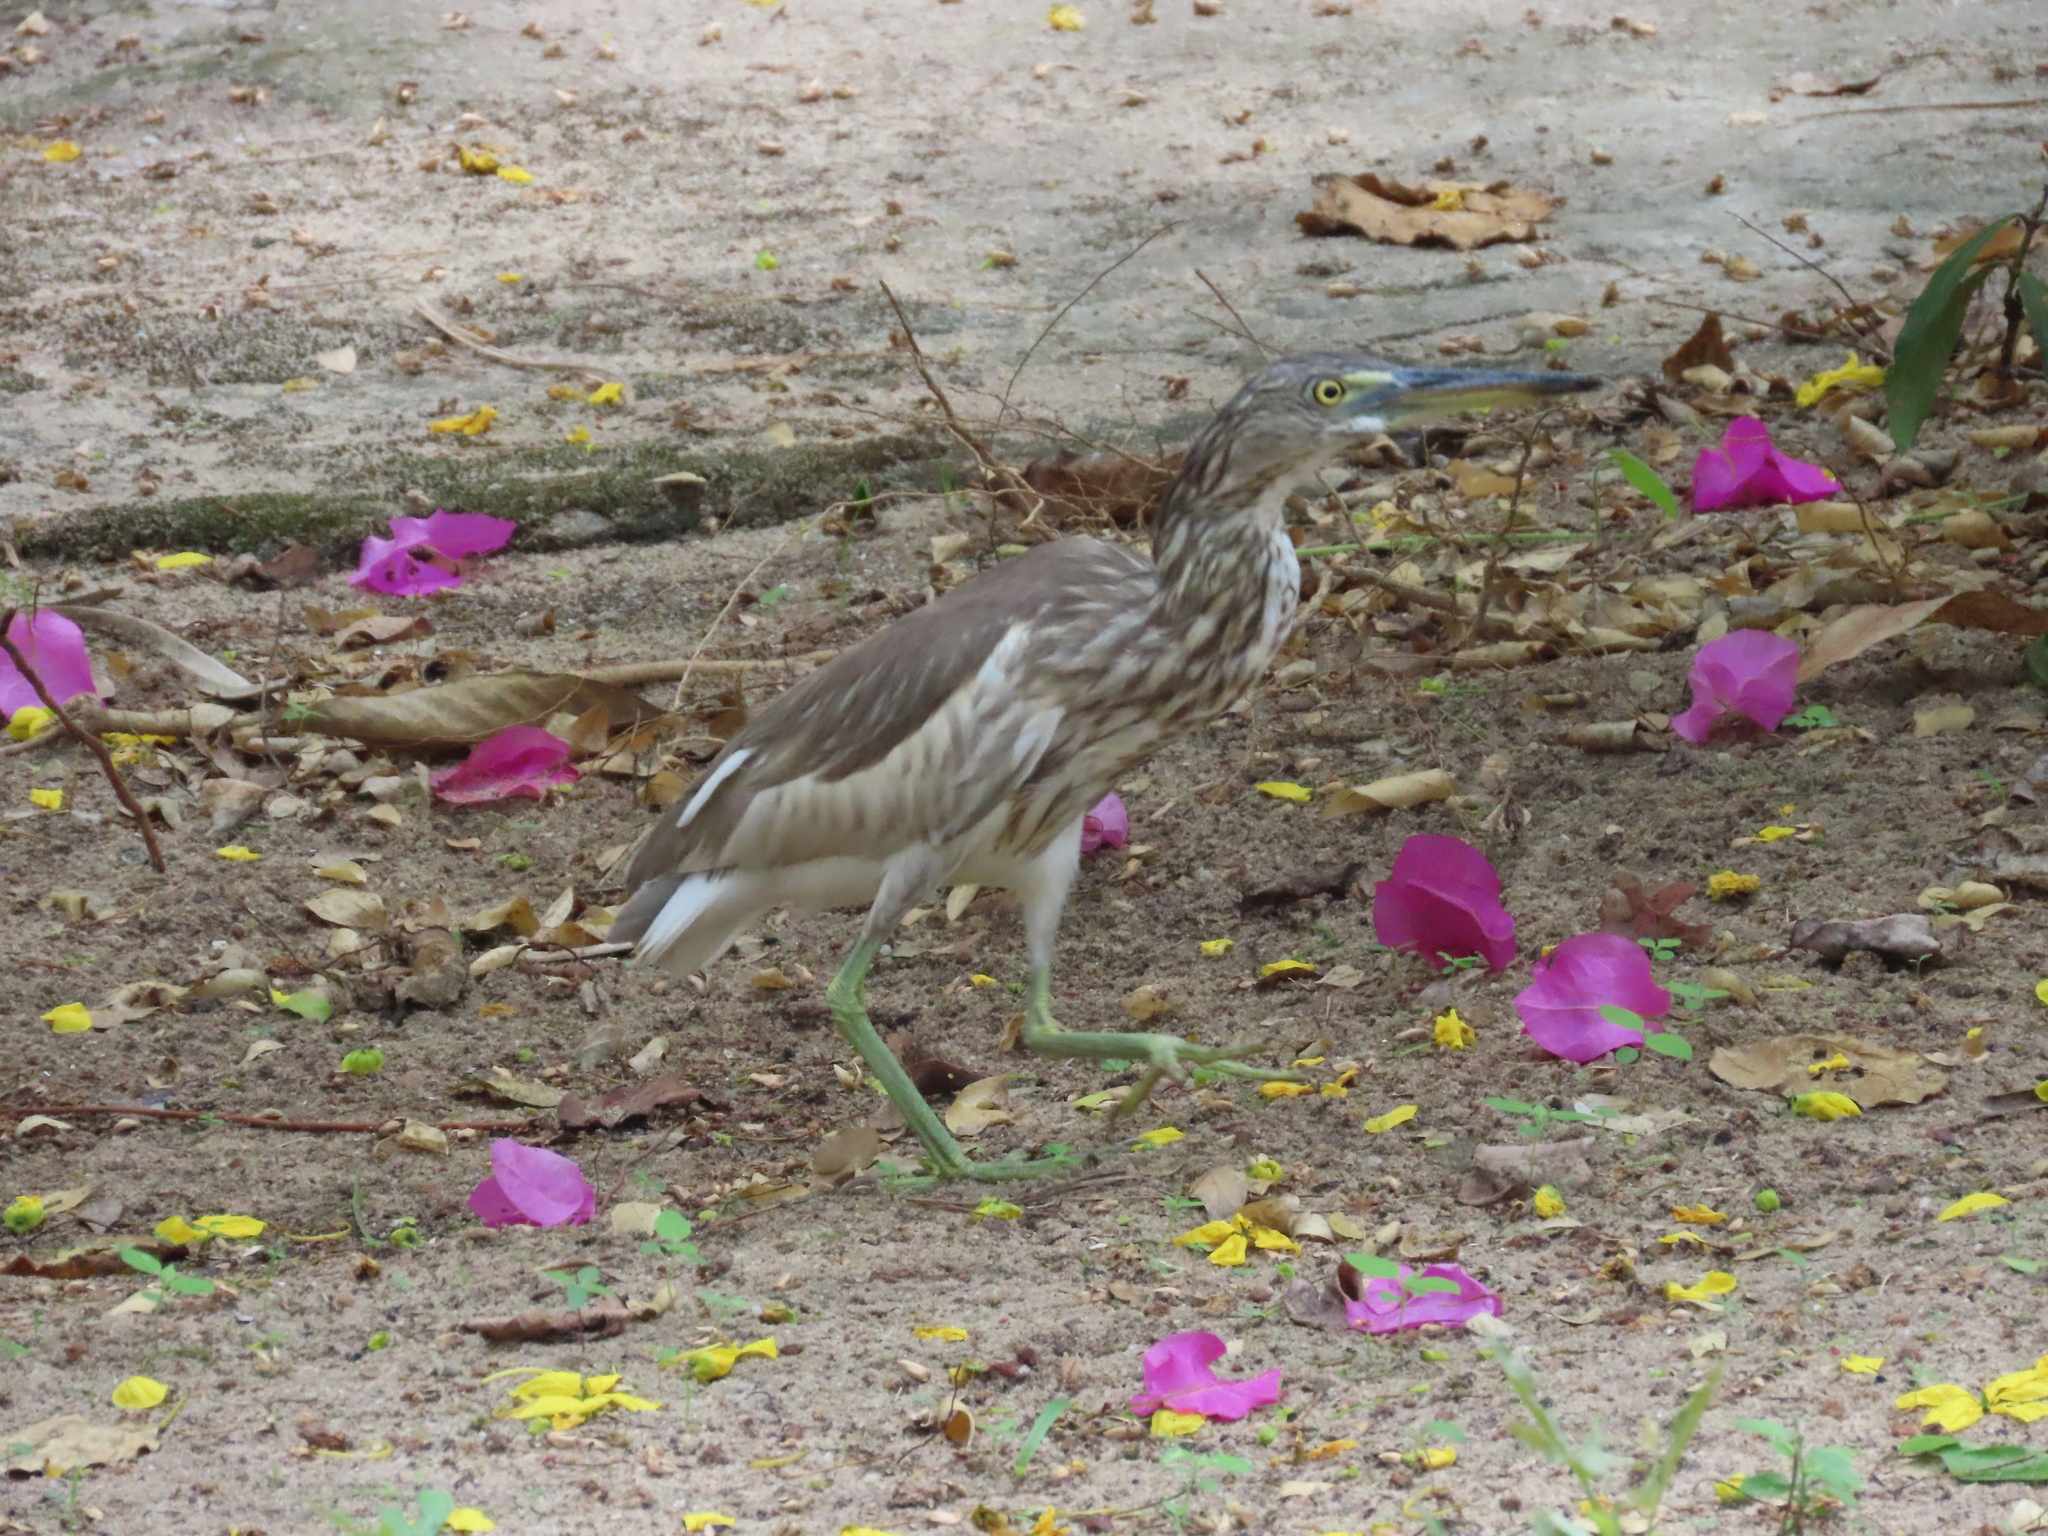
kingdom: Animalia
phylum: Chordata
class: Aves
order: Pelecaniformes
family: Ardeidae
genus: Ardeola
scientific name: Ardeola grayii
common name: Indian pond heron
